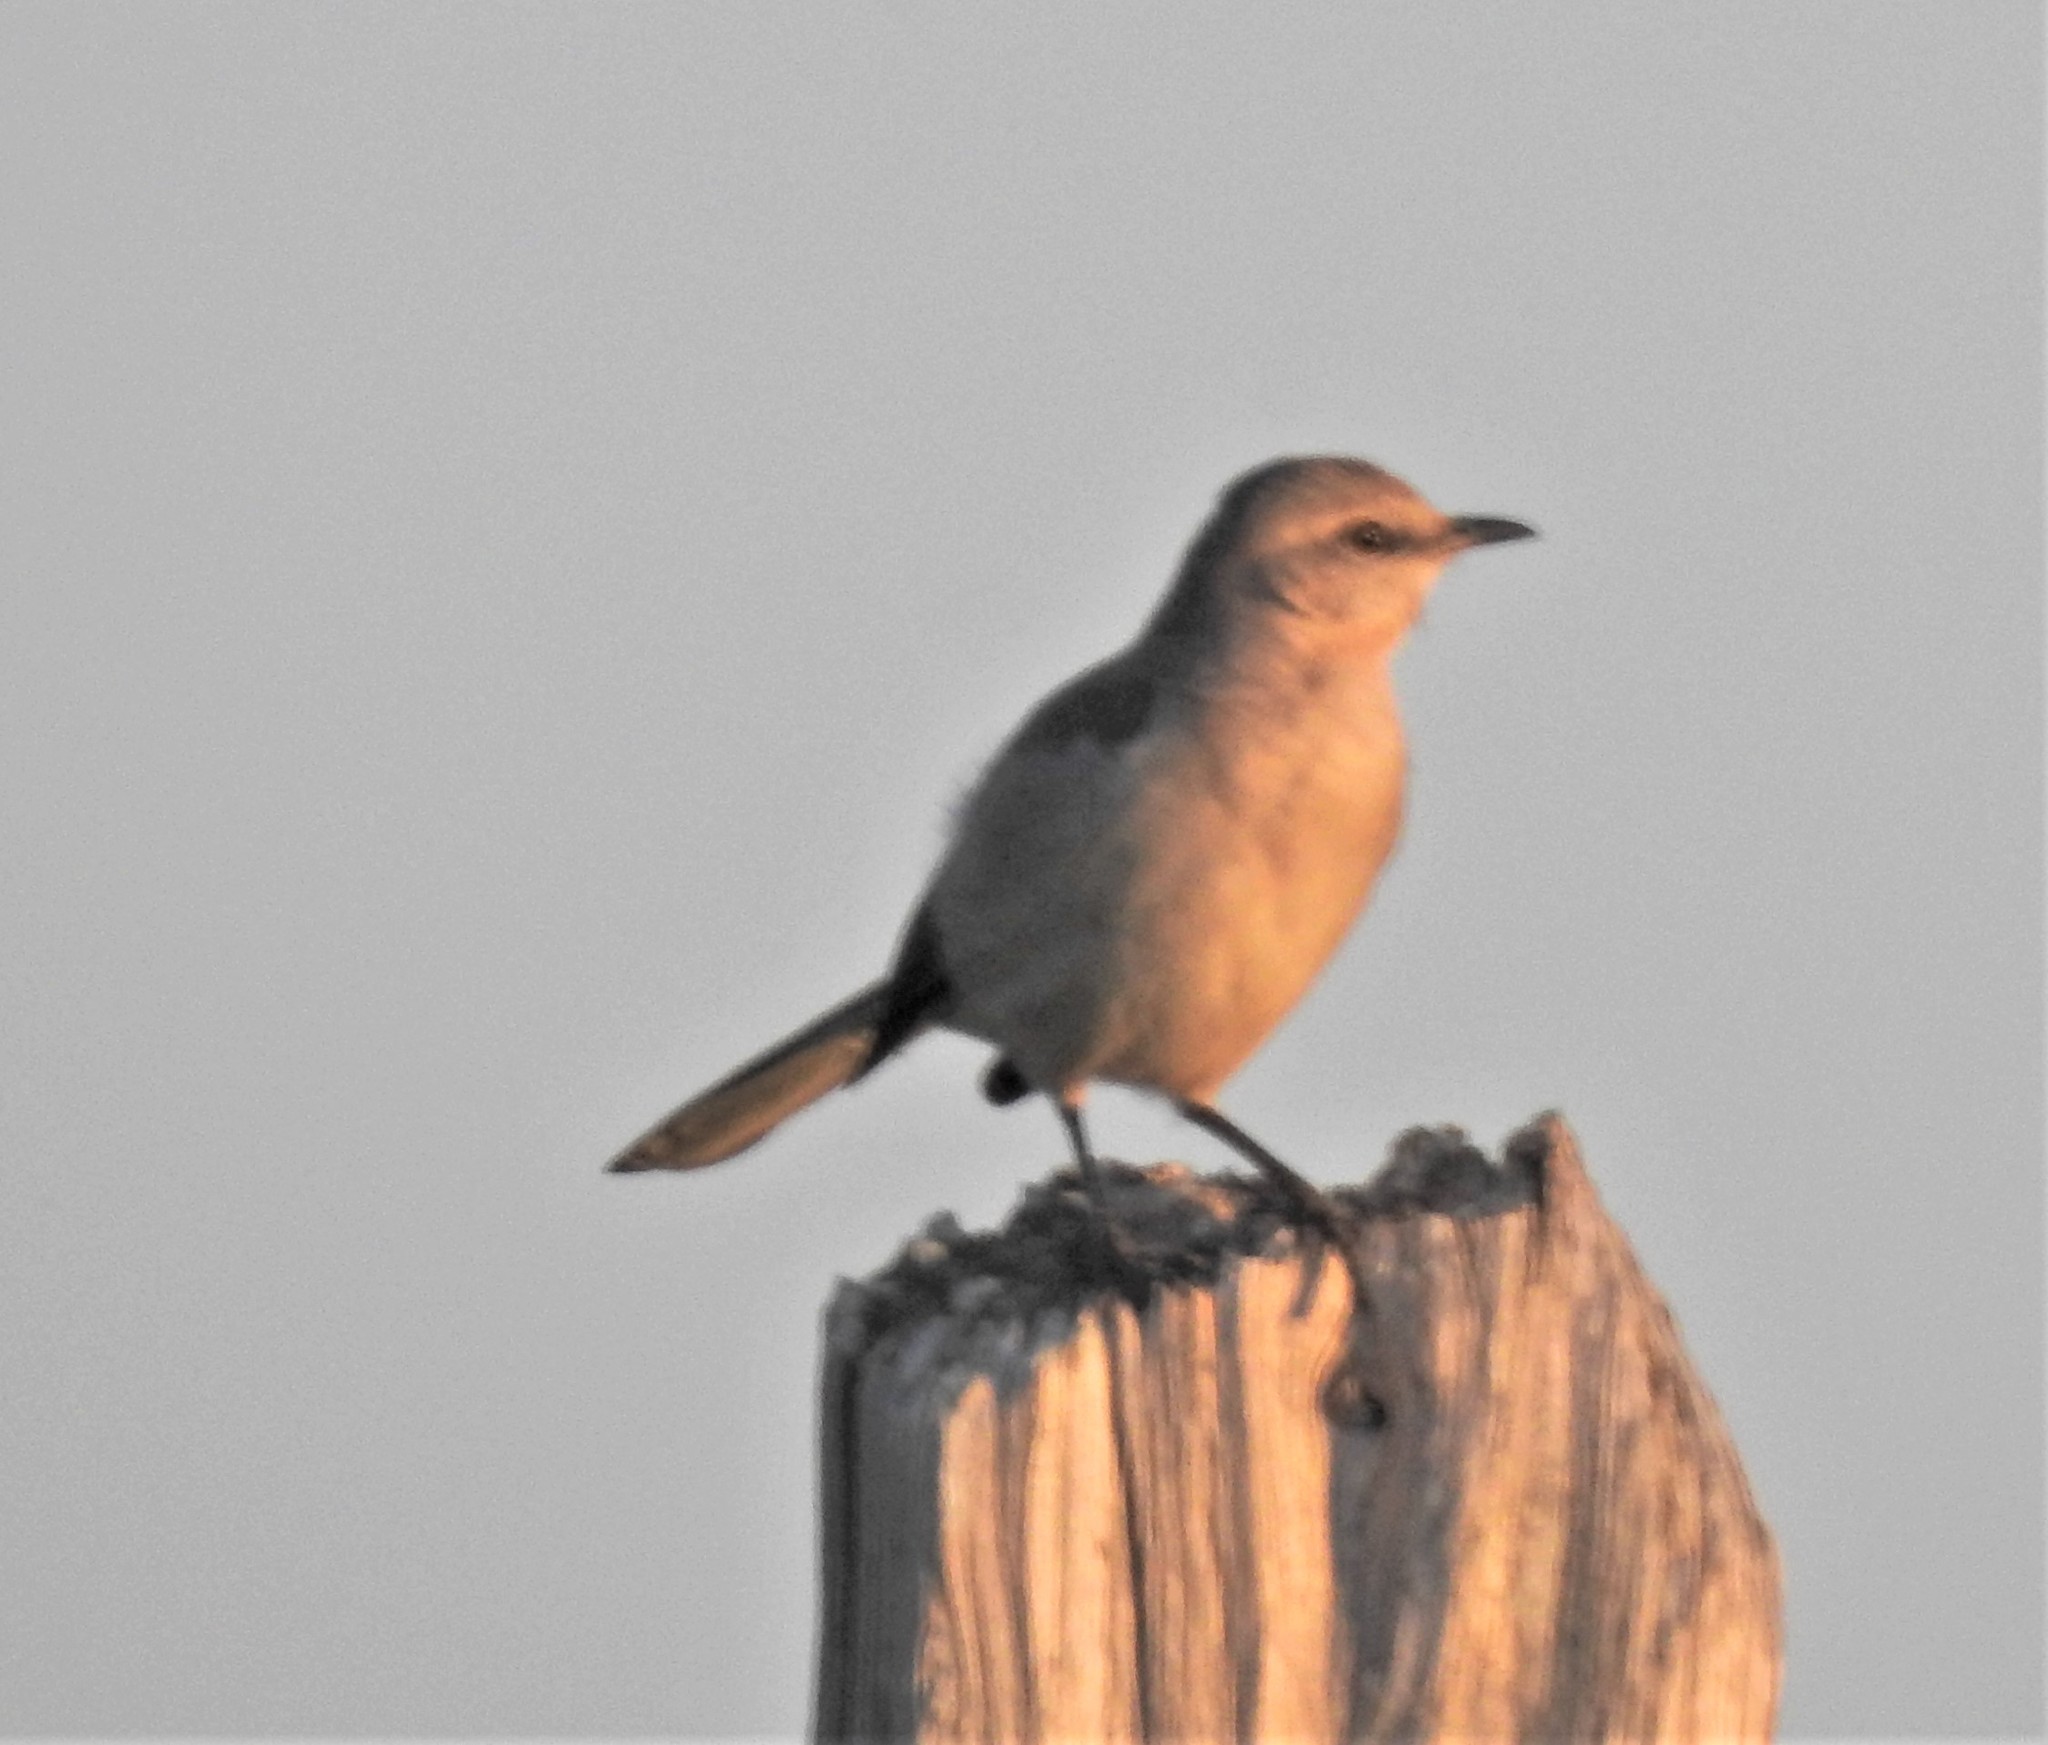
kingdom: Animalia
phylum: Chordata
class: Aves
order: Passeriformes
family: Mimidae
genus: Mimus
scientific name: Mimus polyglottos
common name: Northern mockingbird
